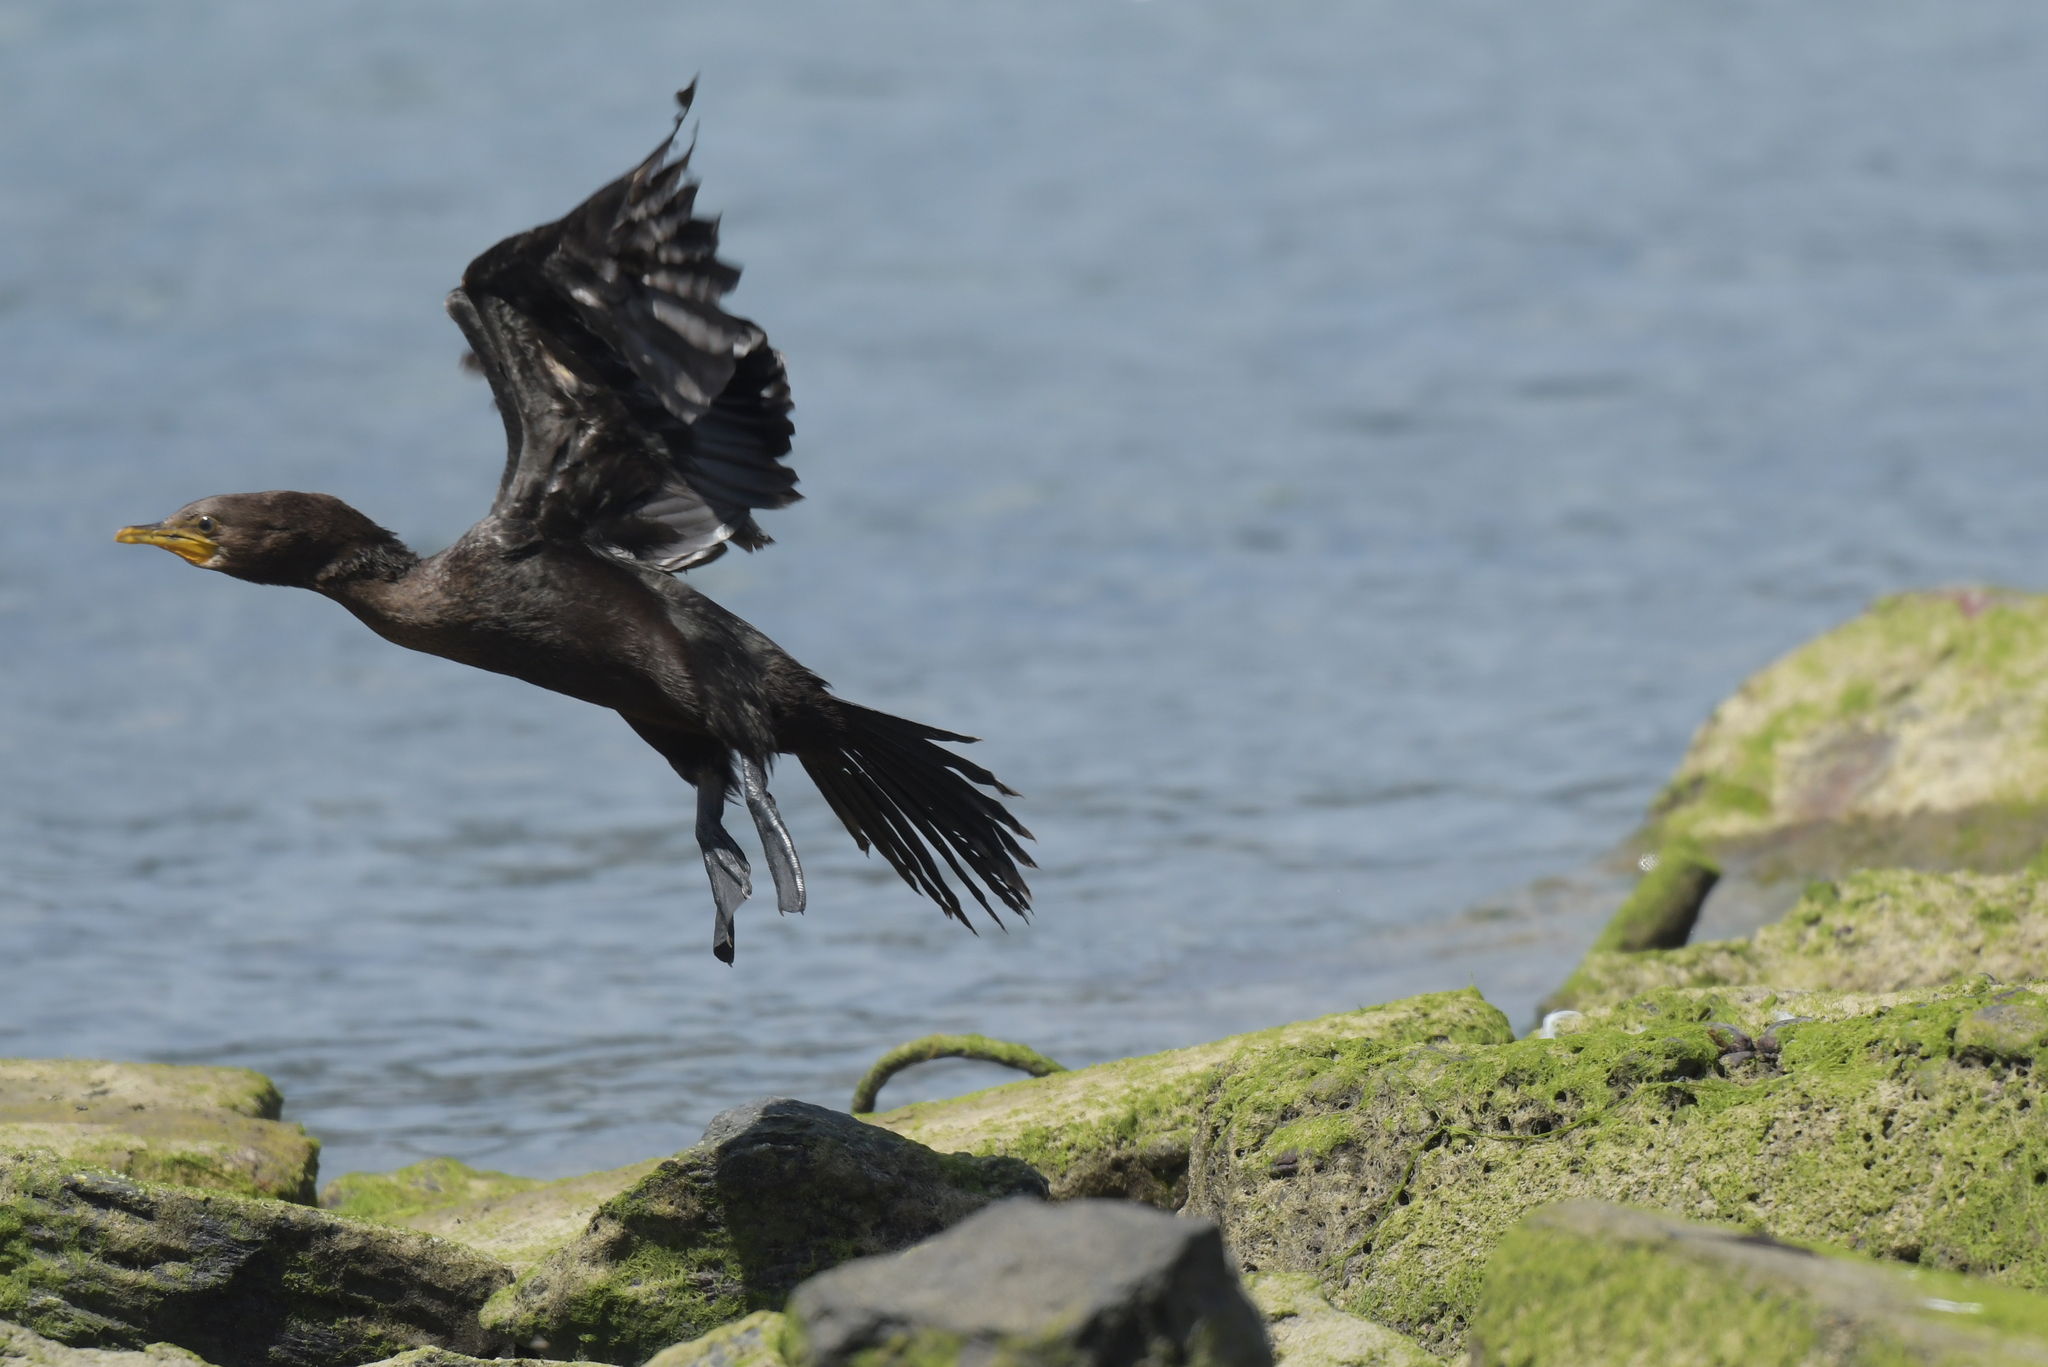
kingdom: Animalia
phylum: Chordata
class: Aves
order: Suliformes
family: Phalacrocoracidae
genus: Microcarbo
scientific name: Microcarbo melanoleucos
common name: Little pied cormorant
